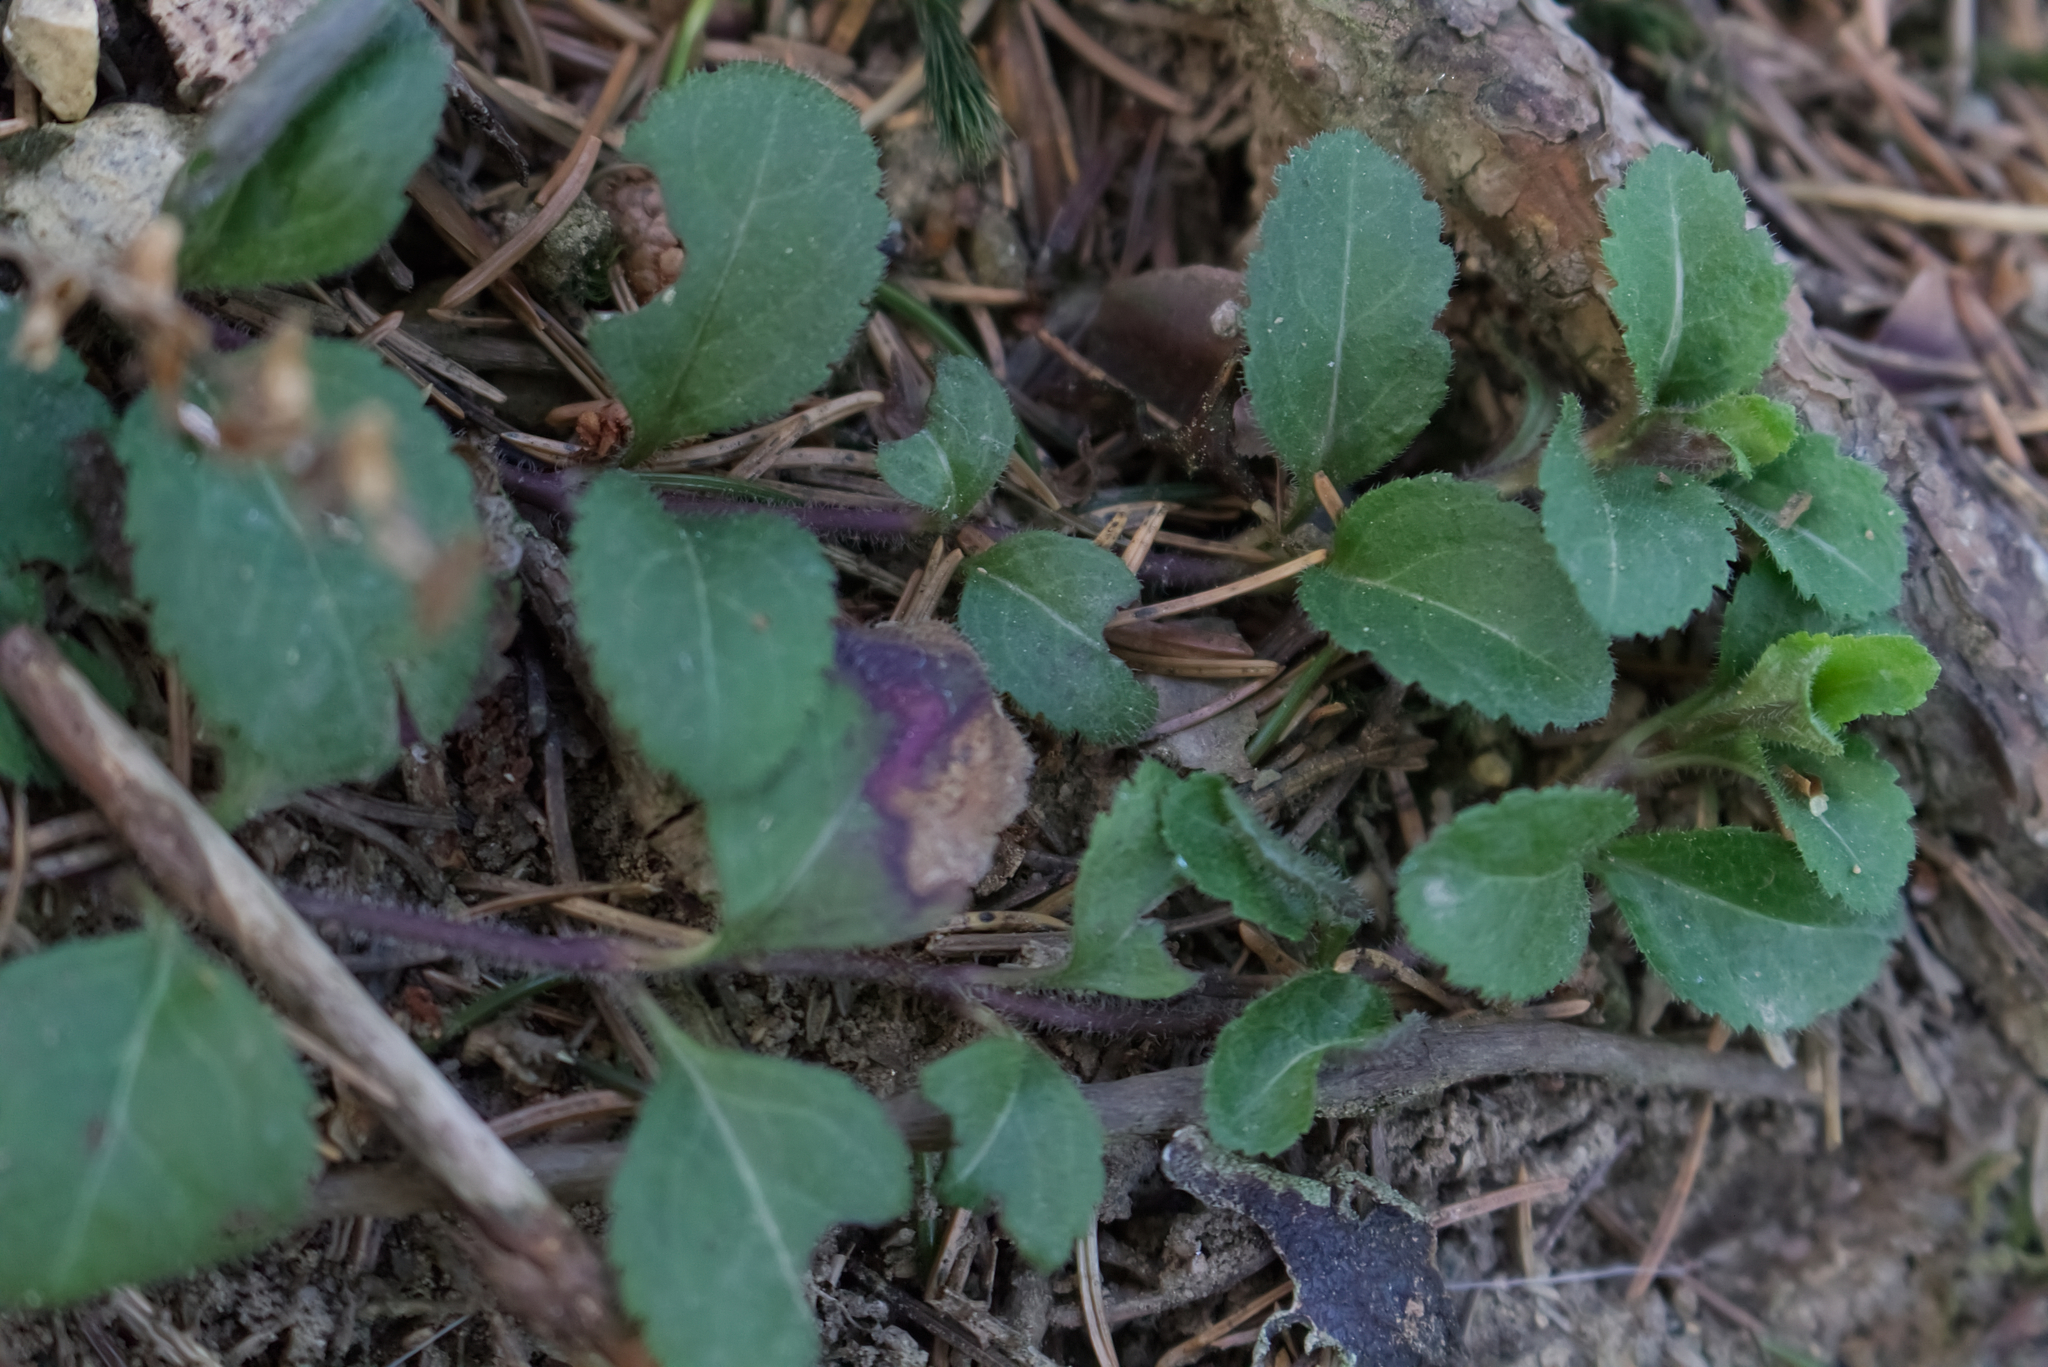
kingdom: Plantae
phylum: Tracheophyta
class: Magnoliopsida
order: Lamiales
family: Plantaginaceae
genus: Veronica
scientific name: Veronica officinalis
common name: Common speedwell
